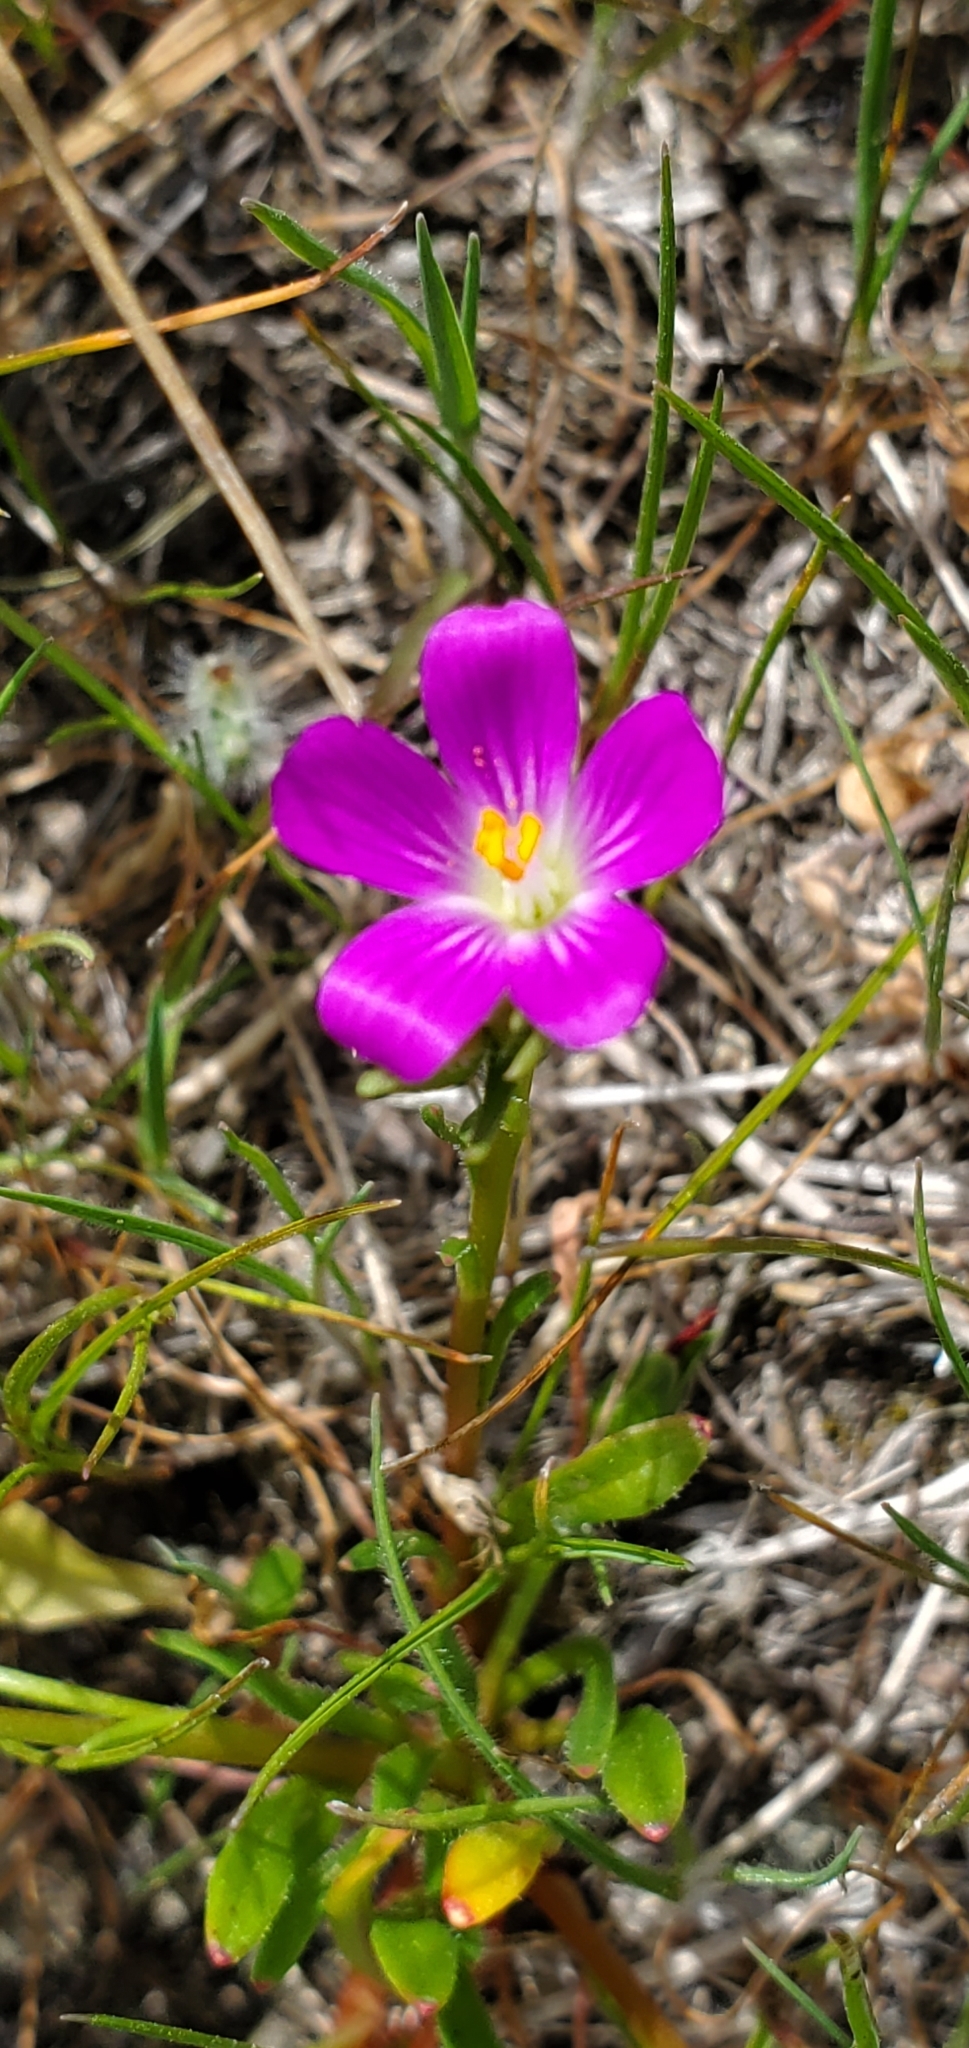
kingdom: Plantae
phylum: Tracheophyta
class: Magnoliopsida
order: Caryophyllales
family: Montiaceae
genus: Calandrinia
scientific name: Calandrinia menziesii
